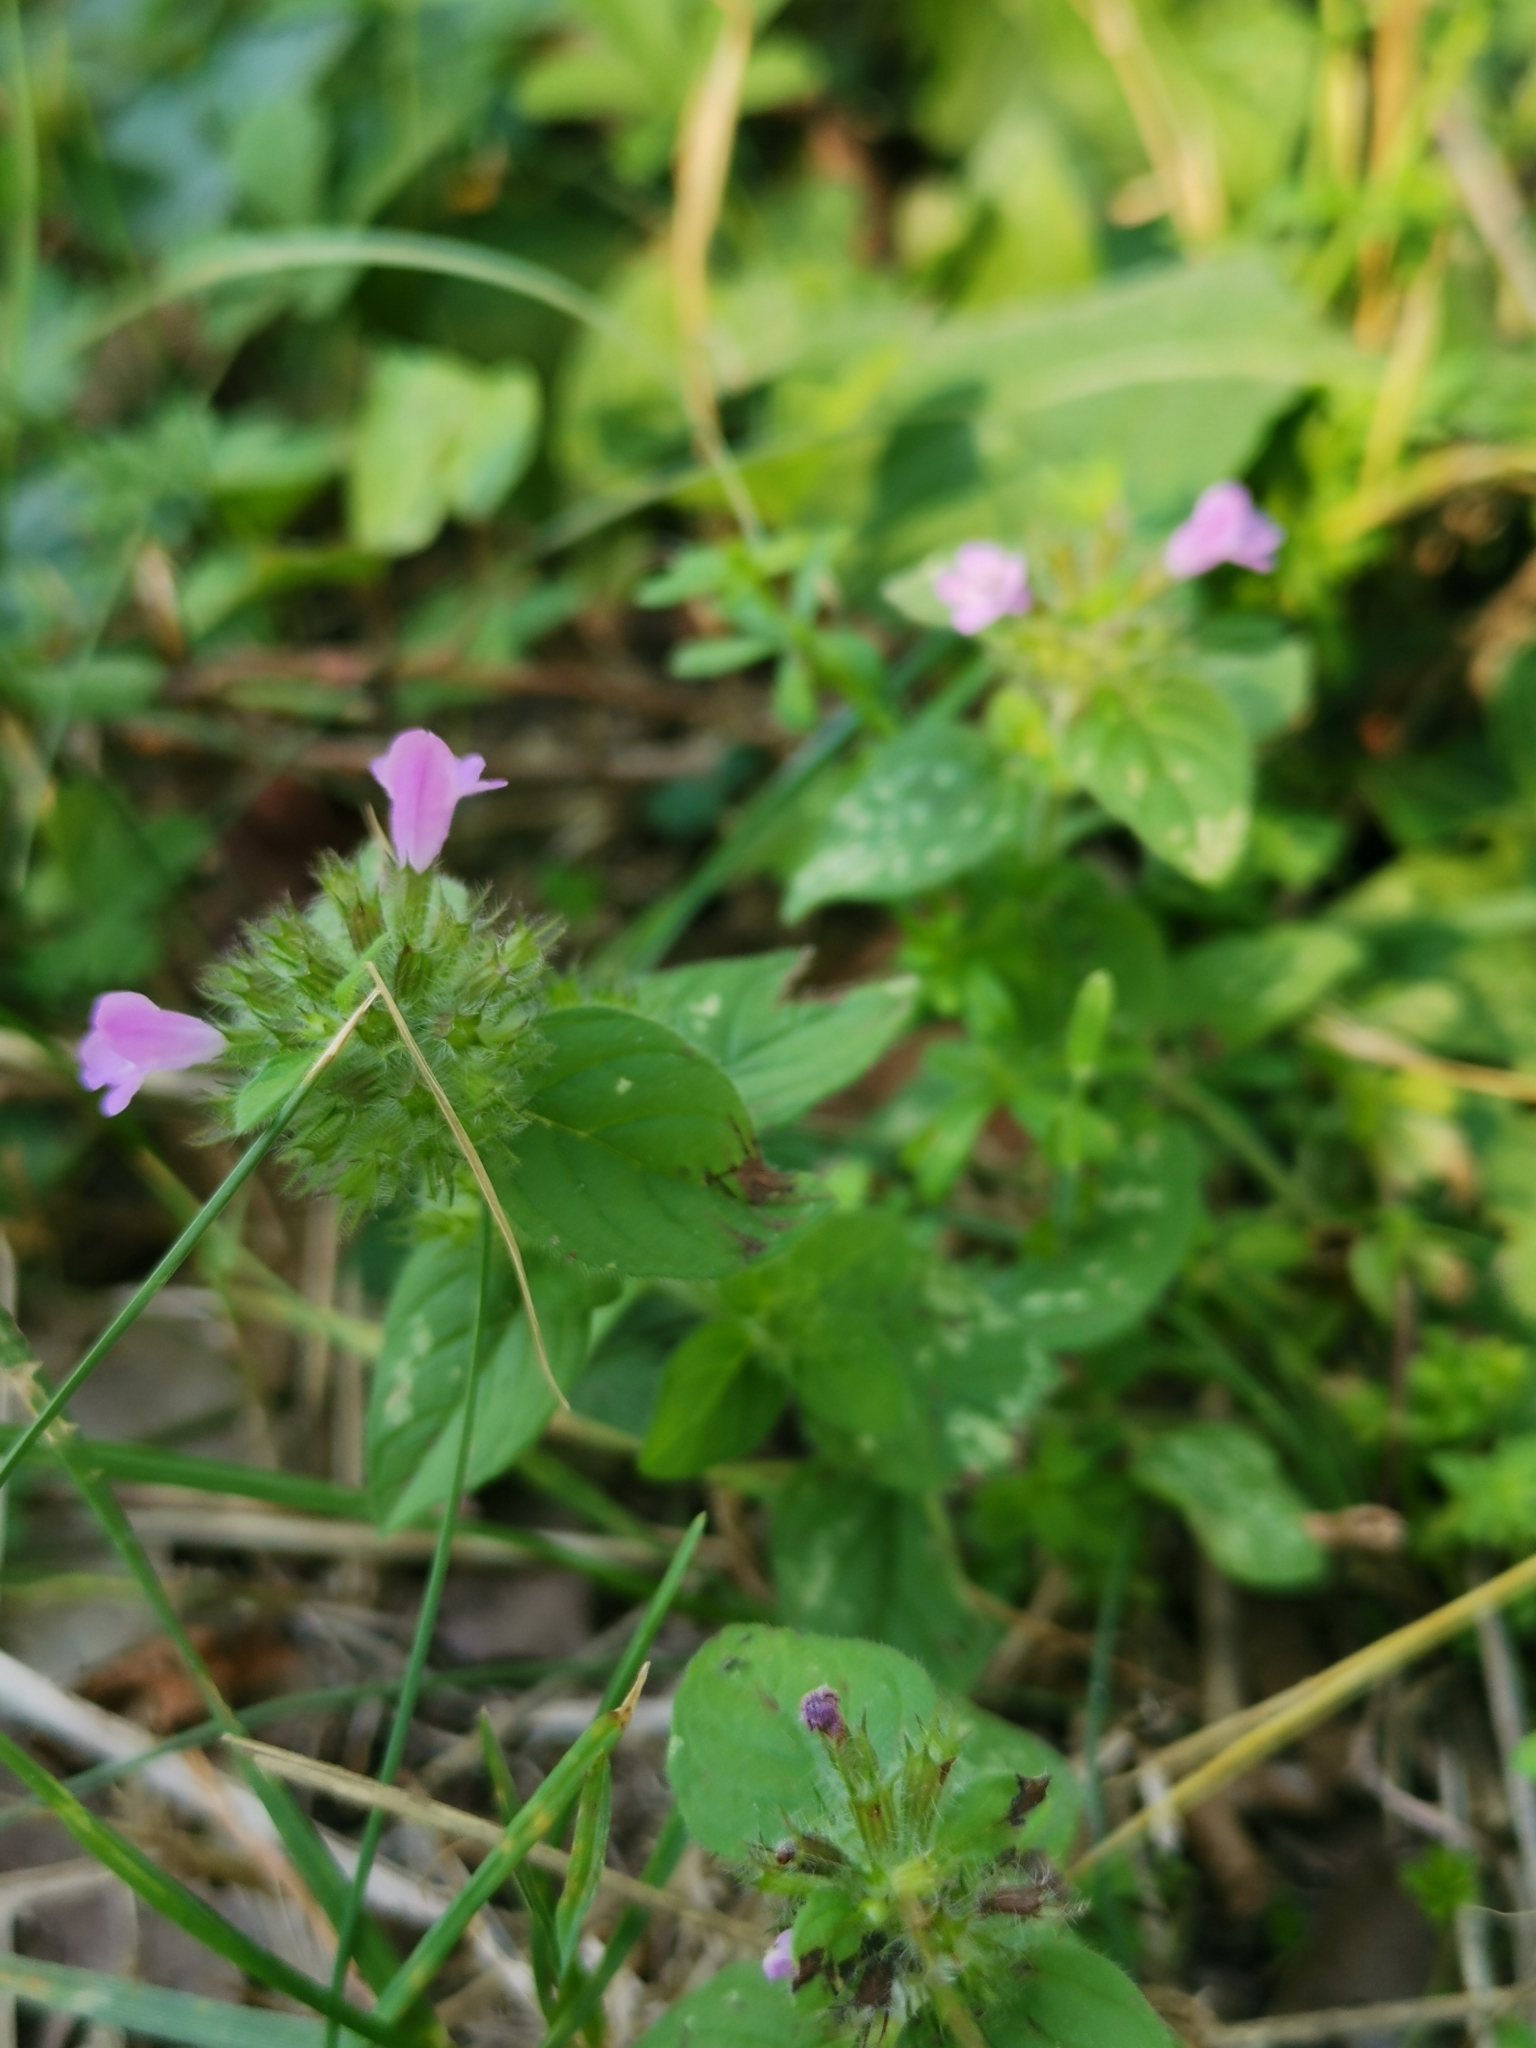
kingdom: Plantae
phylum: Tracheophyta
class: Magnoliopsida
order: Lamiales
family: Lamiaceae
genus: Clinopodium
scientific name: Clinopodium vulgare
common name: Wild basil
